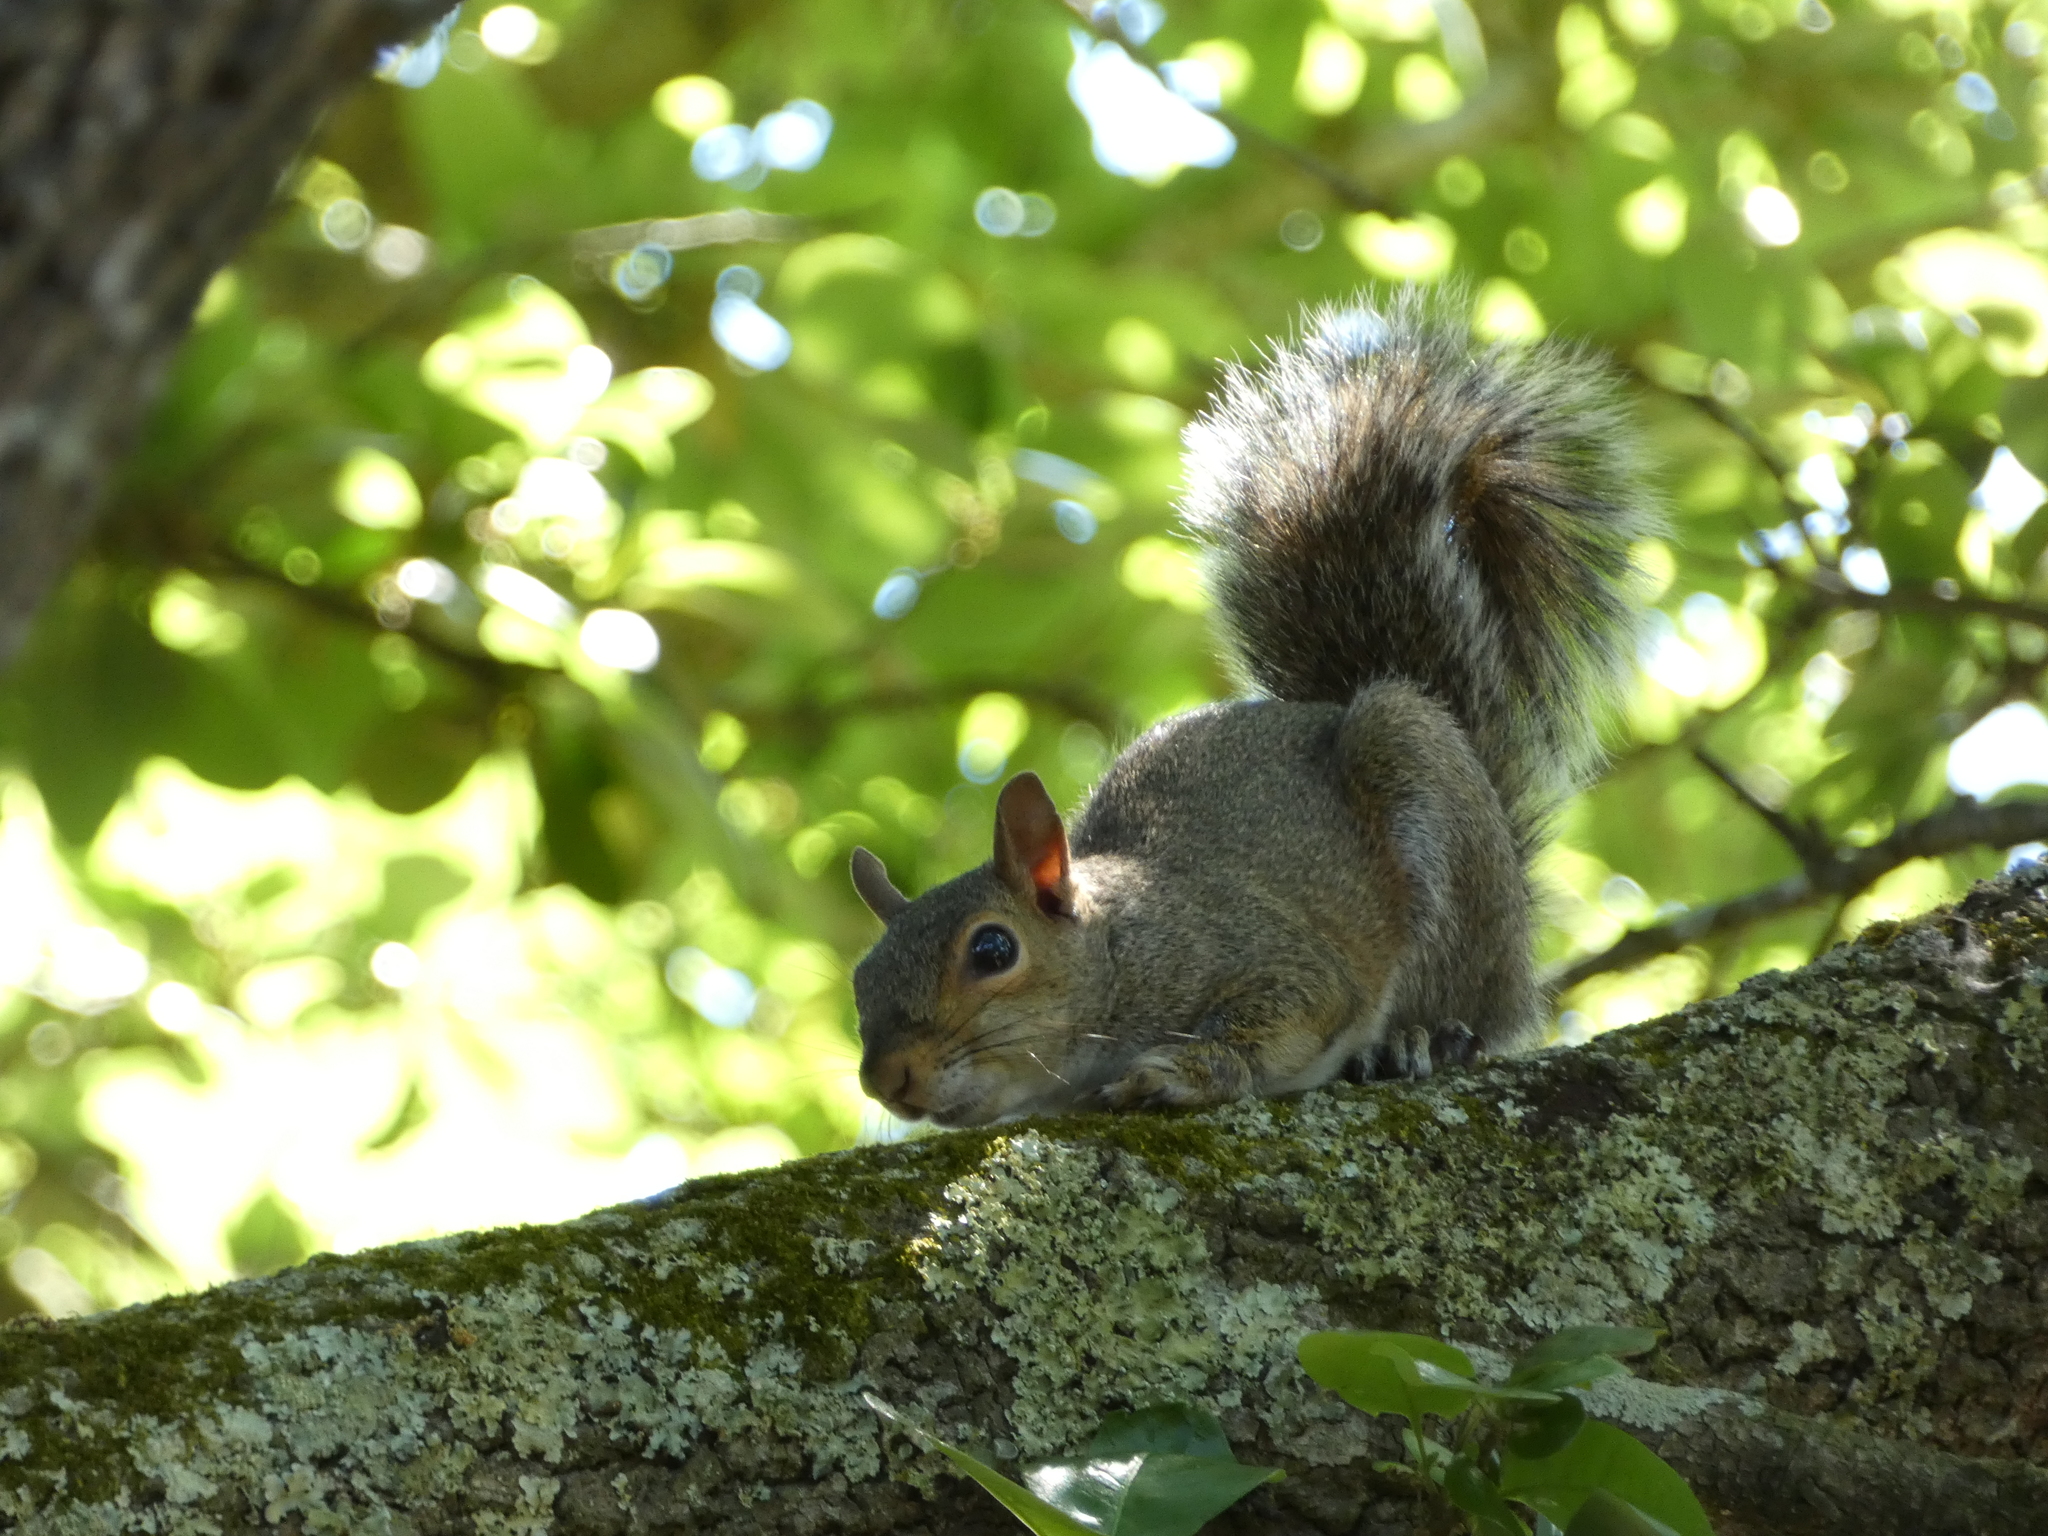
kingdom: Animalia
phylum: Chordata
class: Mammalia
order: Rodentia
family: Sciuridae
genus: Sciurus
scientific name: Sciurus carolinensis
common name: Eastern gray squirrel
